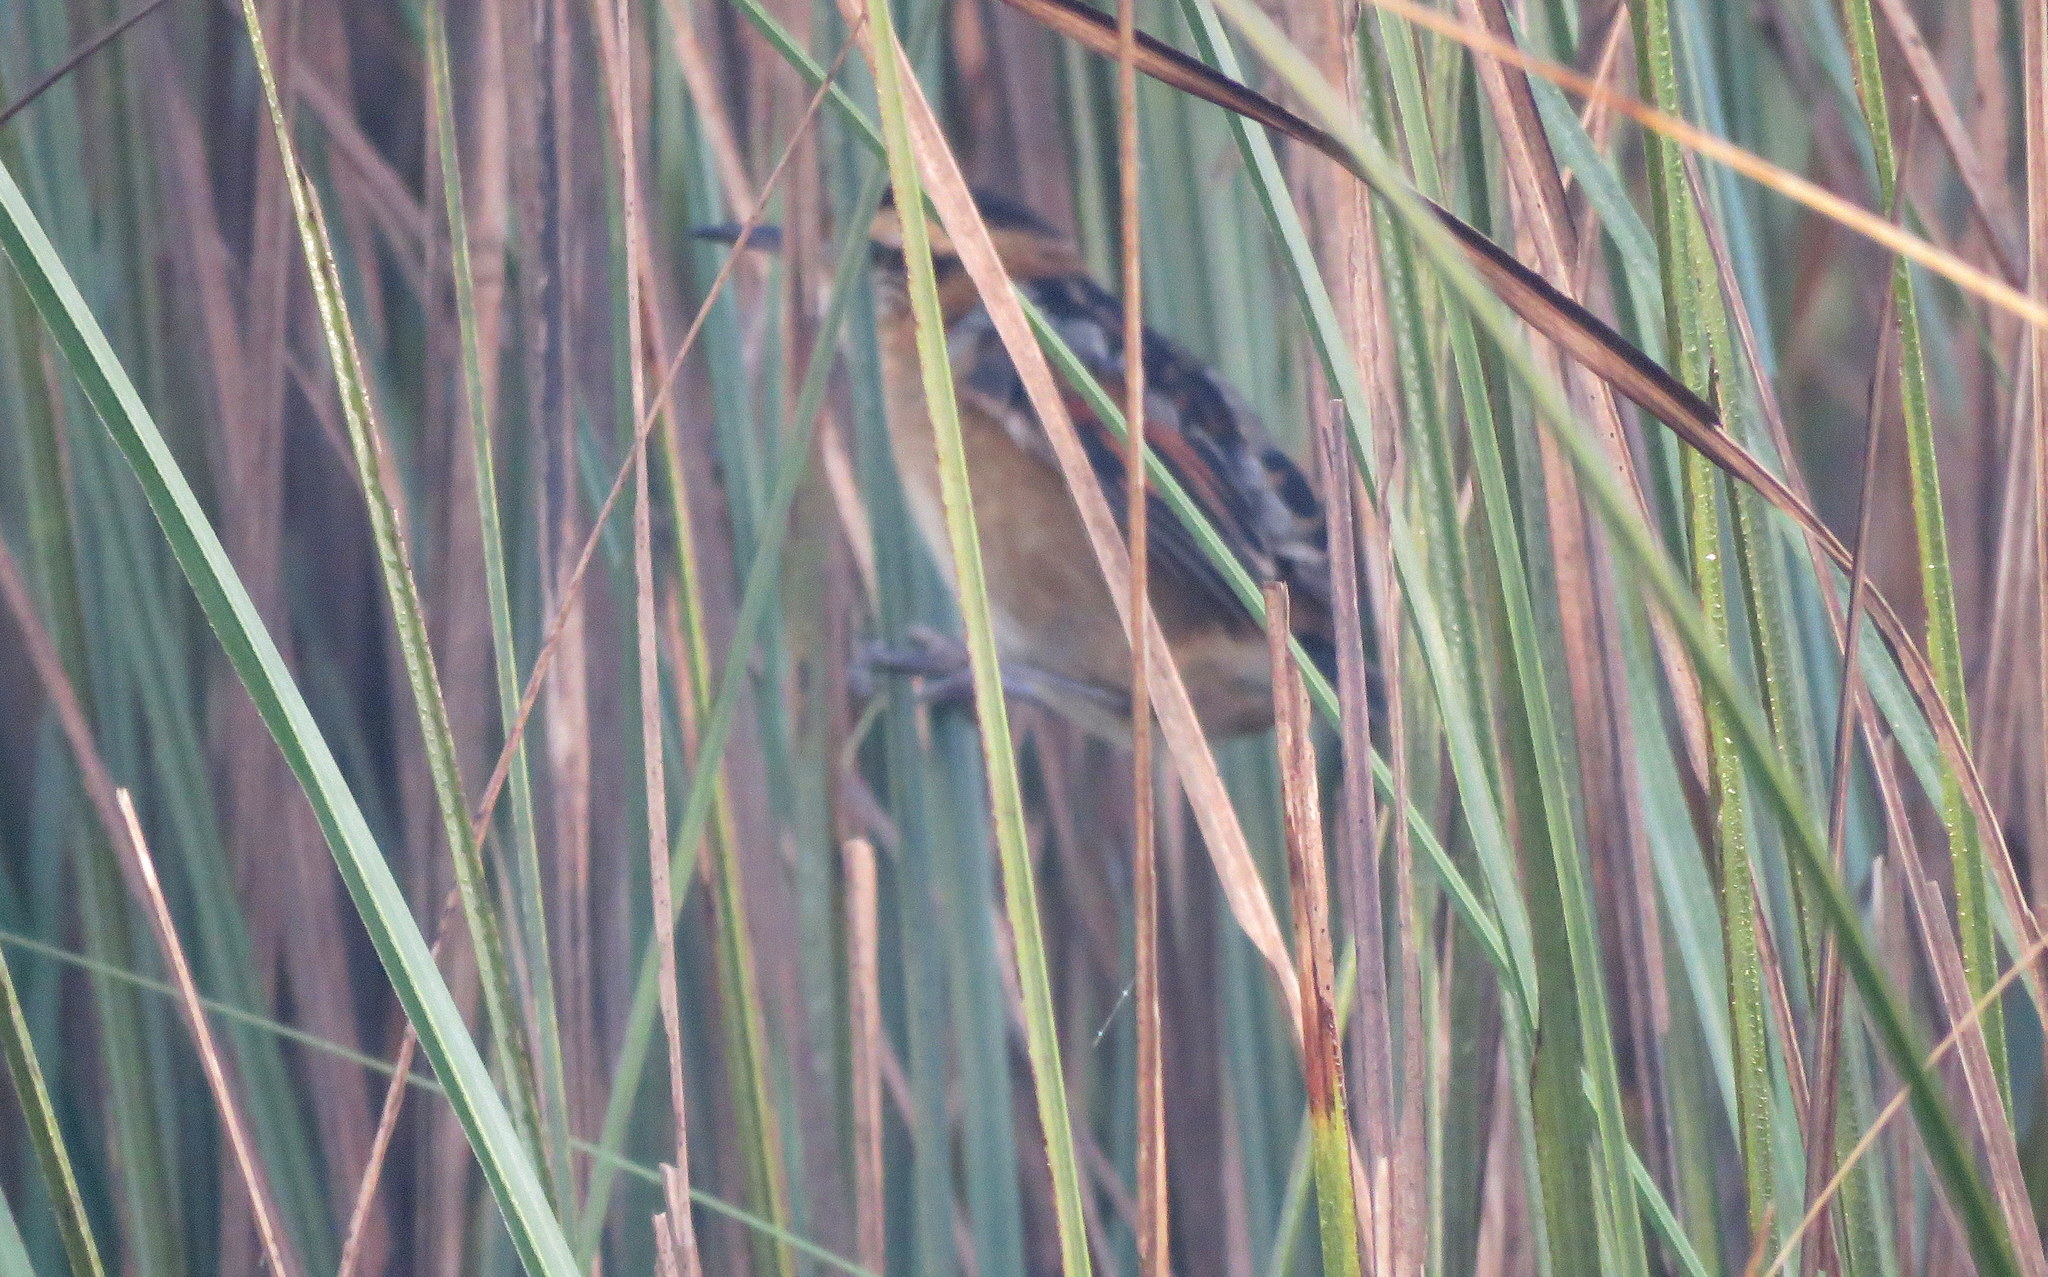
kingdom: Animalia
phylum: Chordata
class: Aves
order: Passeriformes
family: Furnariidae
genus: Phleocryptes
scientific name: Phleocryptes melanops
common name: Wren-like rushbird
